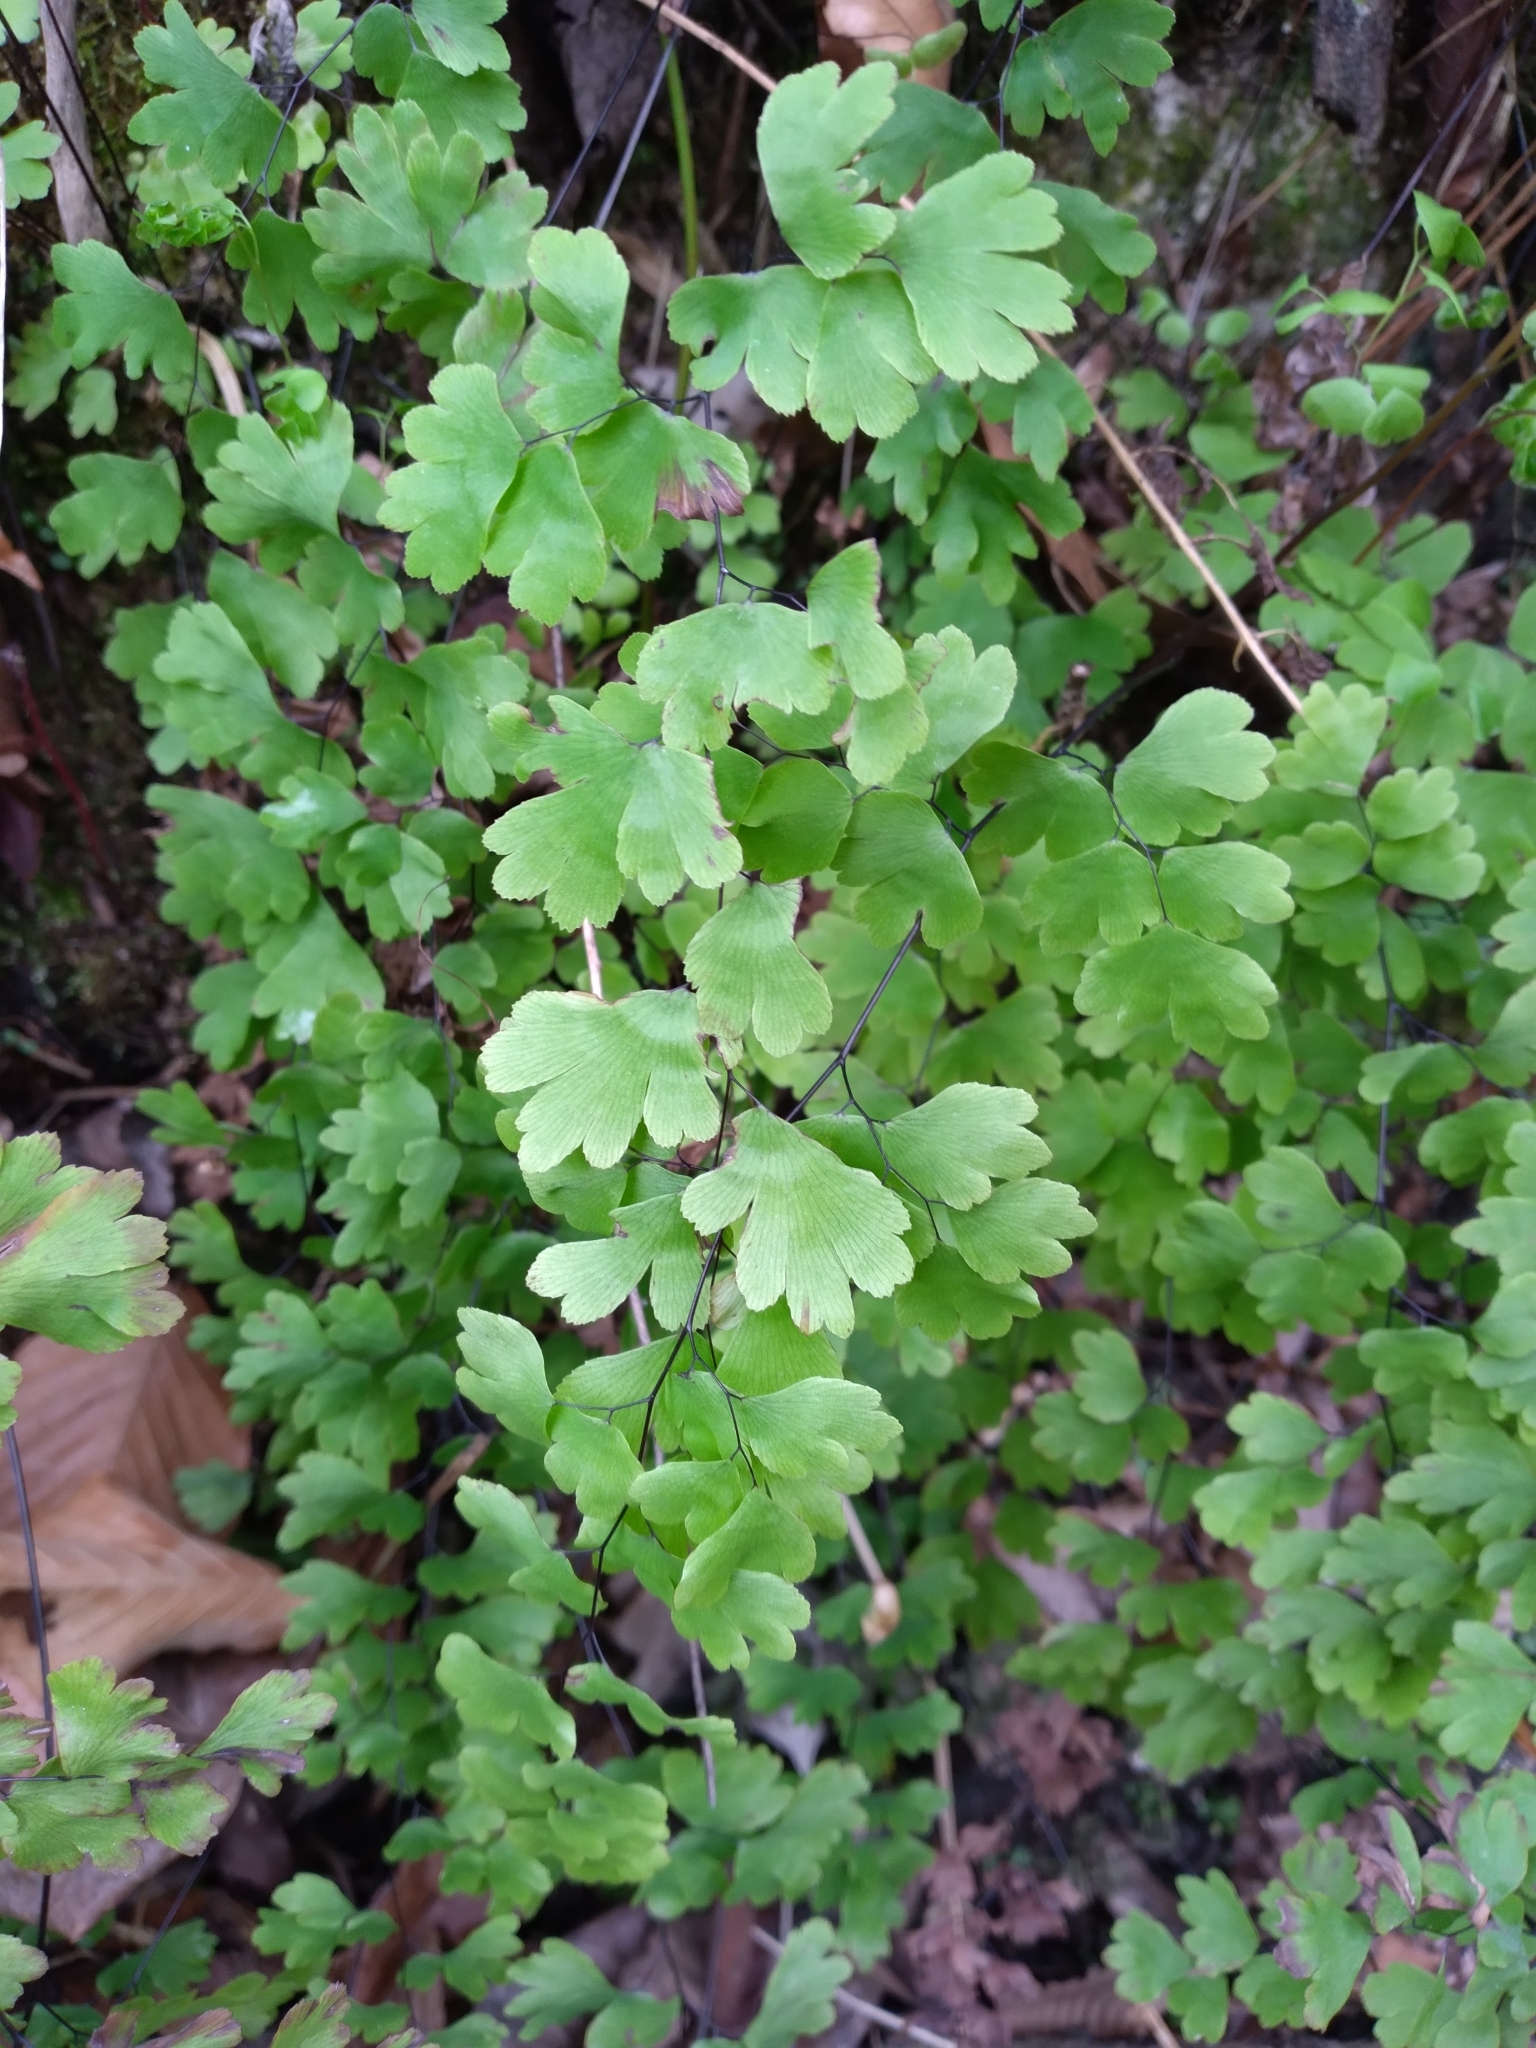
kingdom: Plantae
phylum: Tracheophyta
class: Polypodiopsida
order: Polypodiales
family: Pteridaceae
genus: Adiantum
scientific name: Adiantum capillus-veneris
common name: Maidenhair fern
